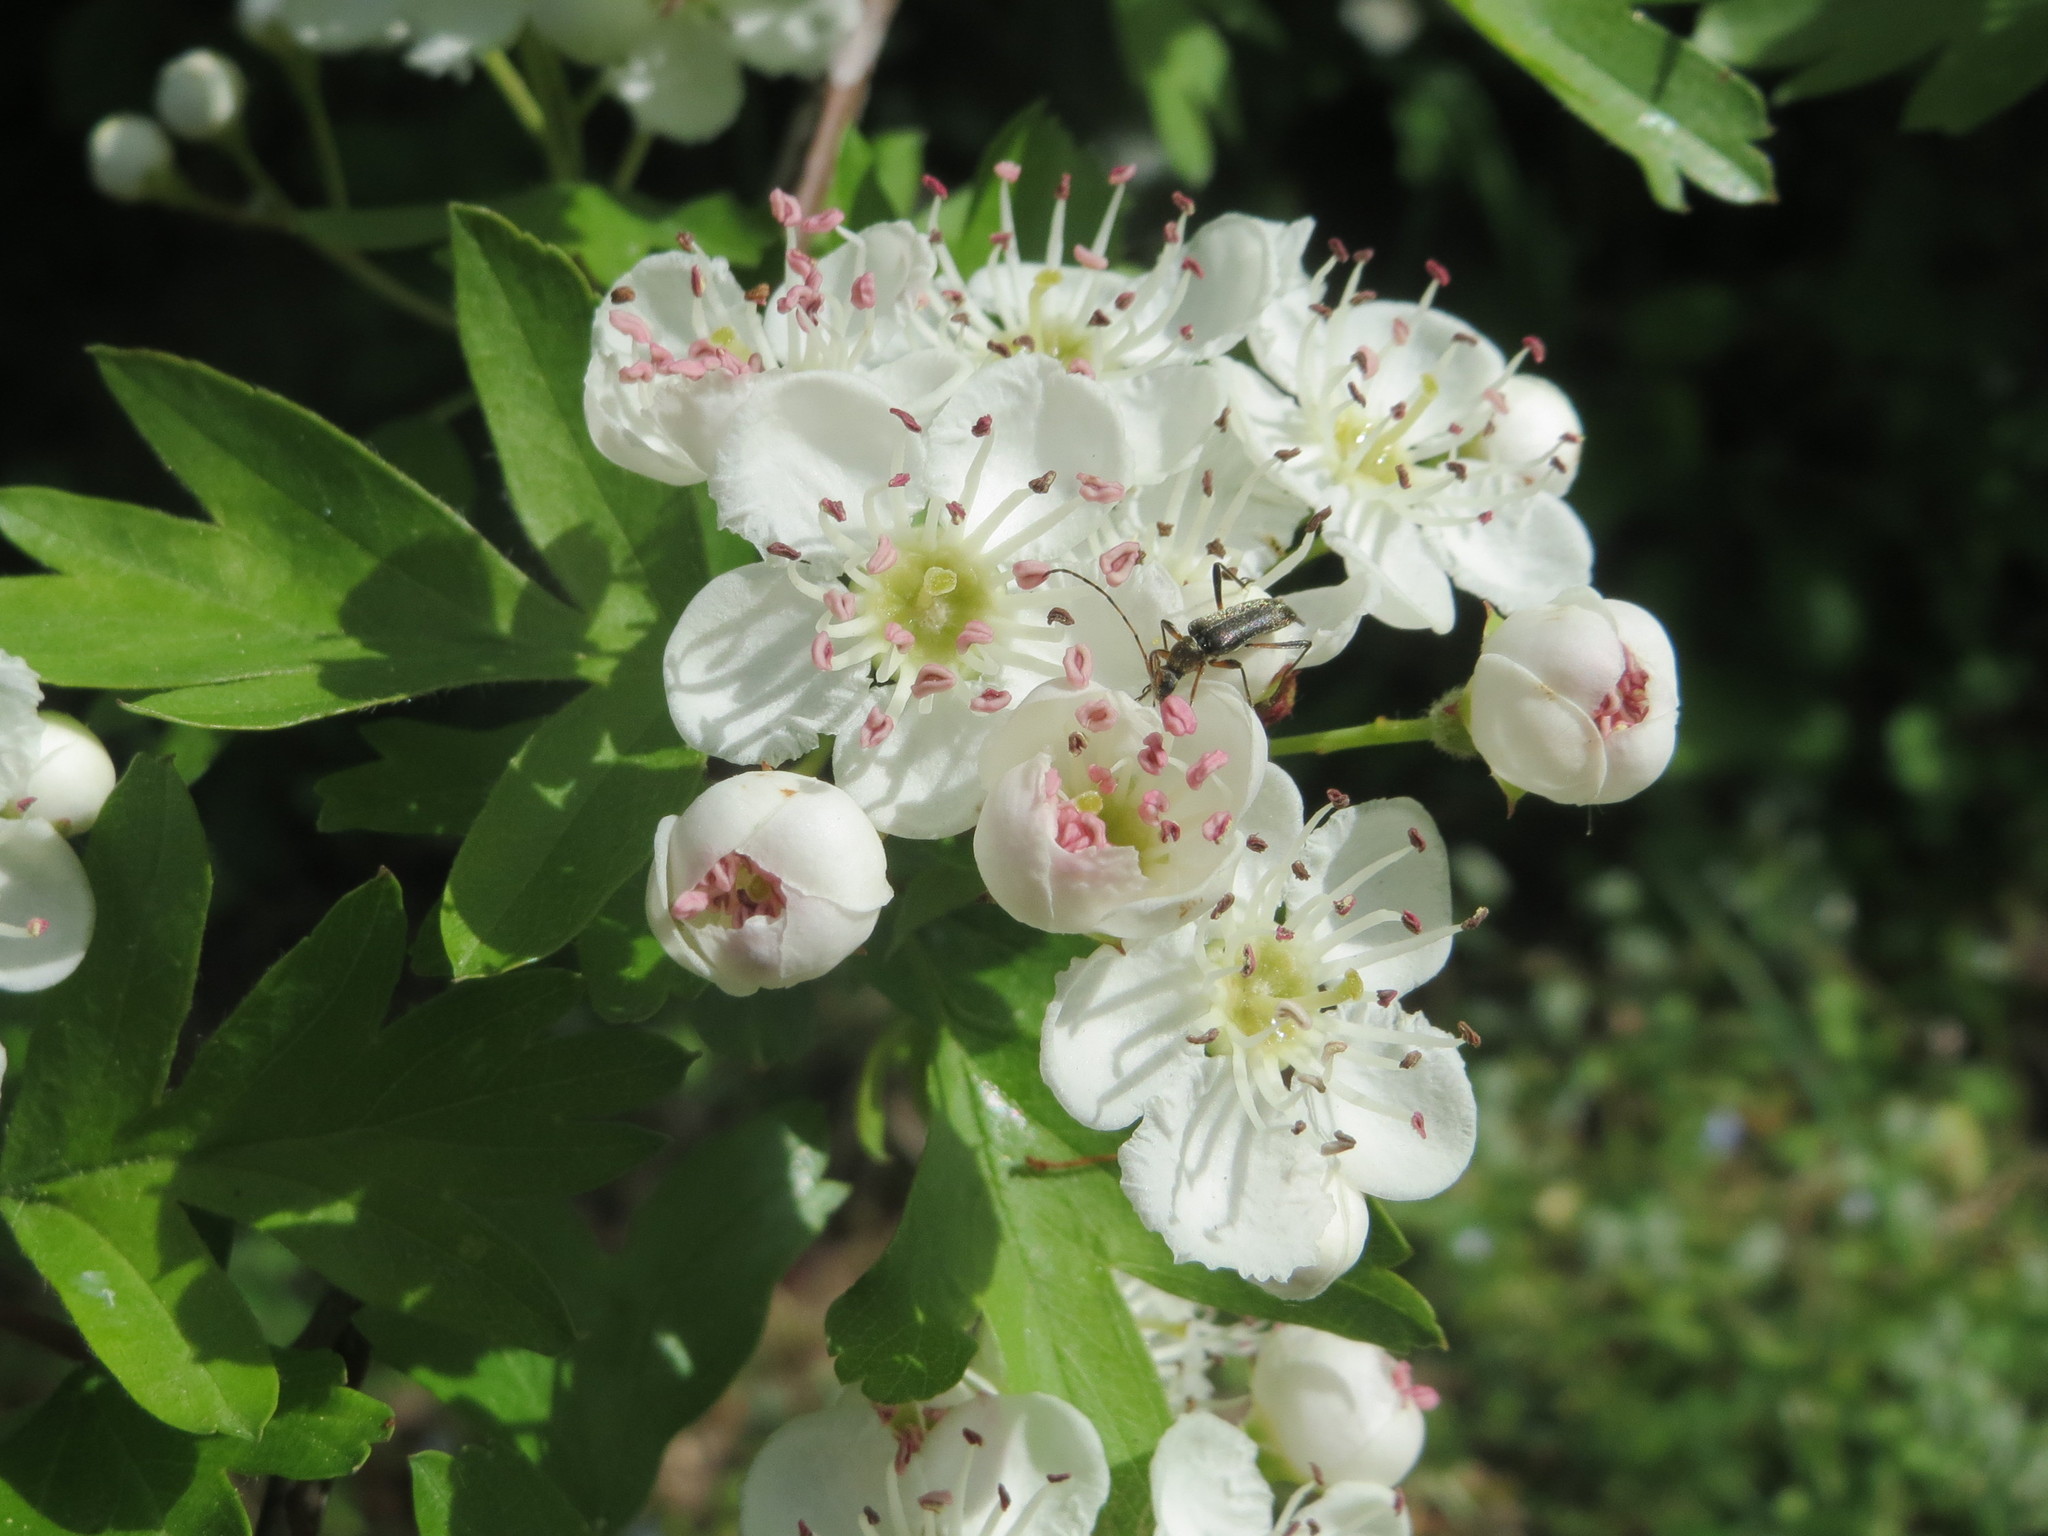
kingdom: Plantae
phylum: Tracheophyta
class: Magnoliopsida
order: Rosales
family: Rosaceae
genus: Crataegus
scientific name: Crataegus monogyna
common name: Hawthorn
